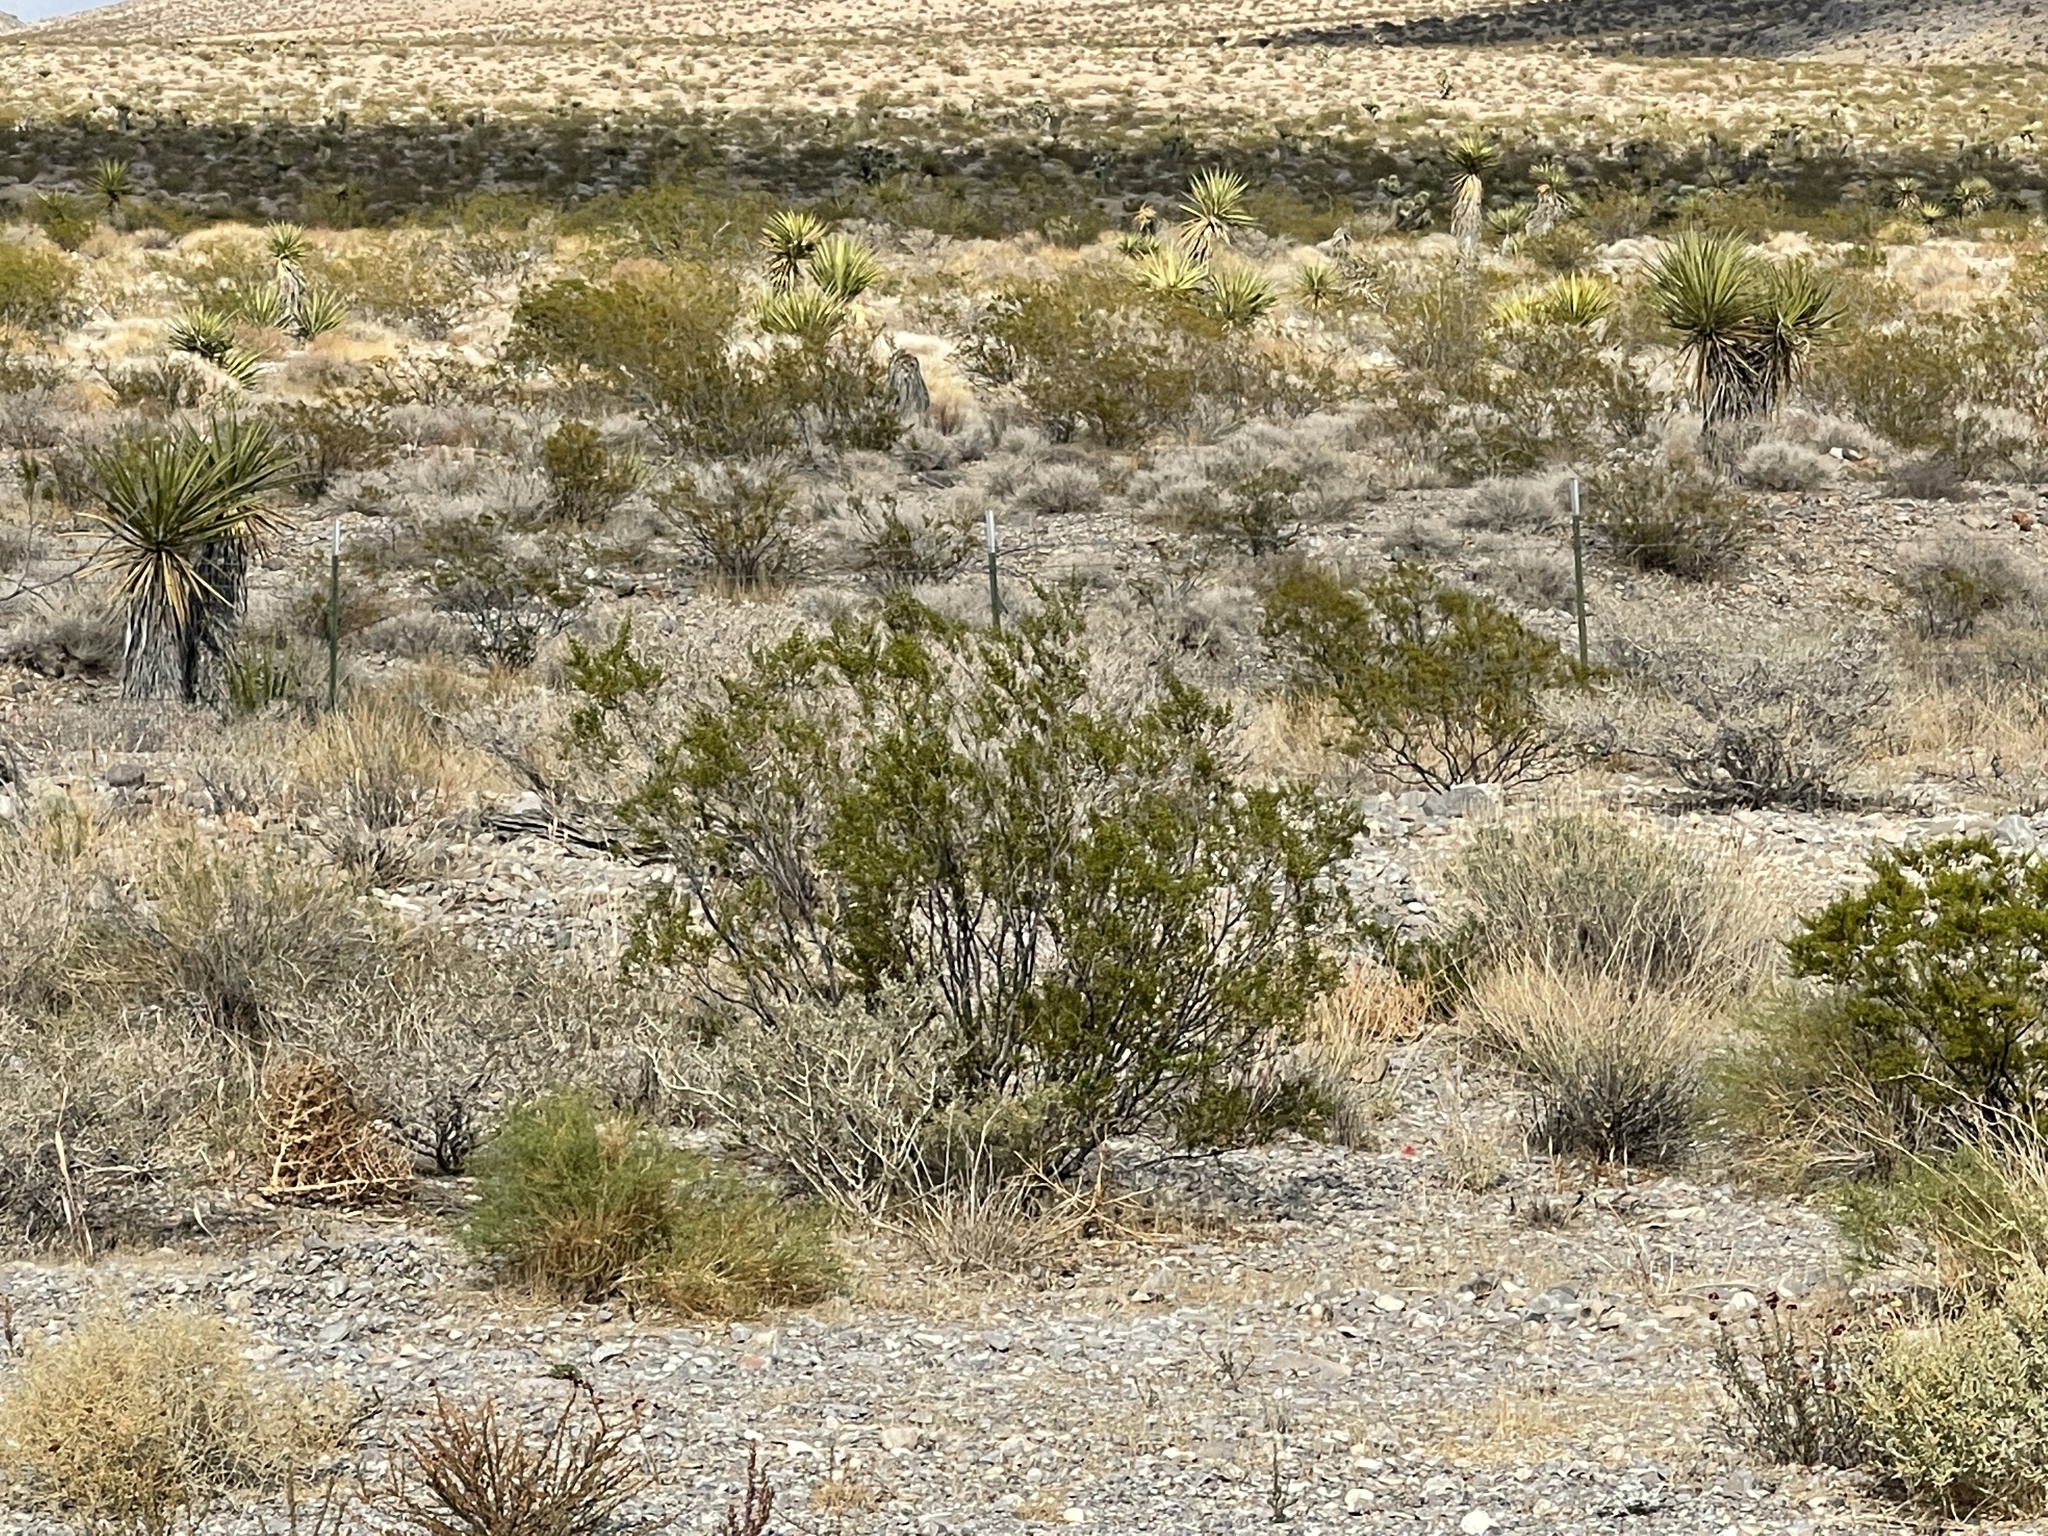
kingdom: Plantae
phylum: Tracheophyta
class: Magnoliopsida
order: Zygophyllales
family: Zygophyllaceae
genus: Larrea
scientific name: Larrea tridentata
